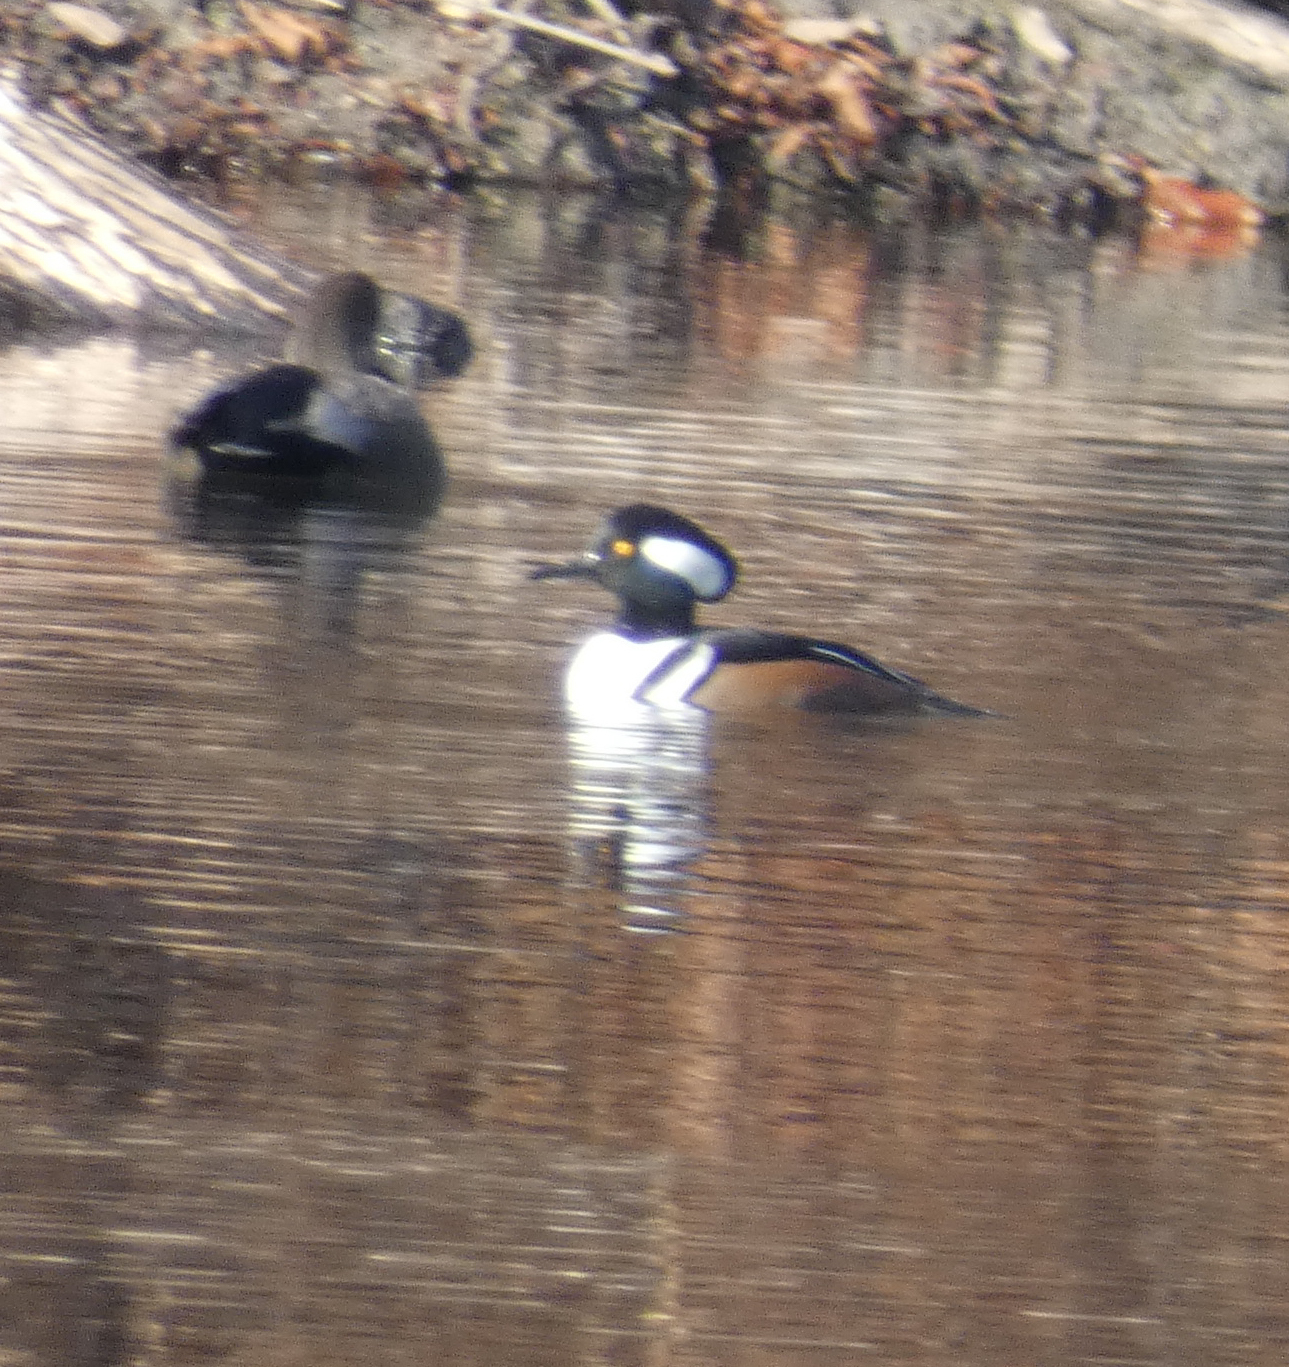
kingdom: Animalia
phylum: Chordata
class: Aves
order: Anseriformes
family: Anatidae
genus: Lophodytes
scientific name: Lophodytes cucullatus
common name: Hooded merganser
